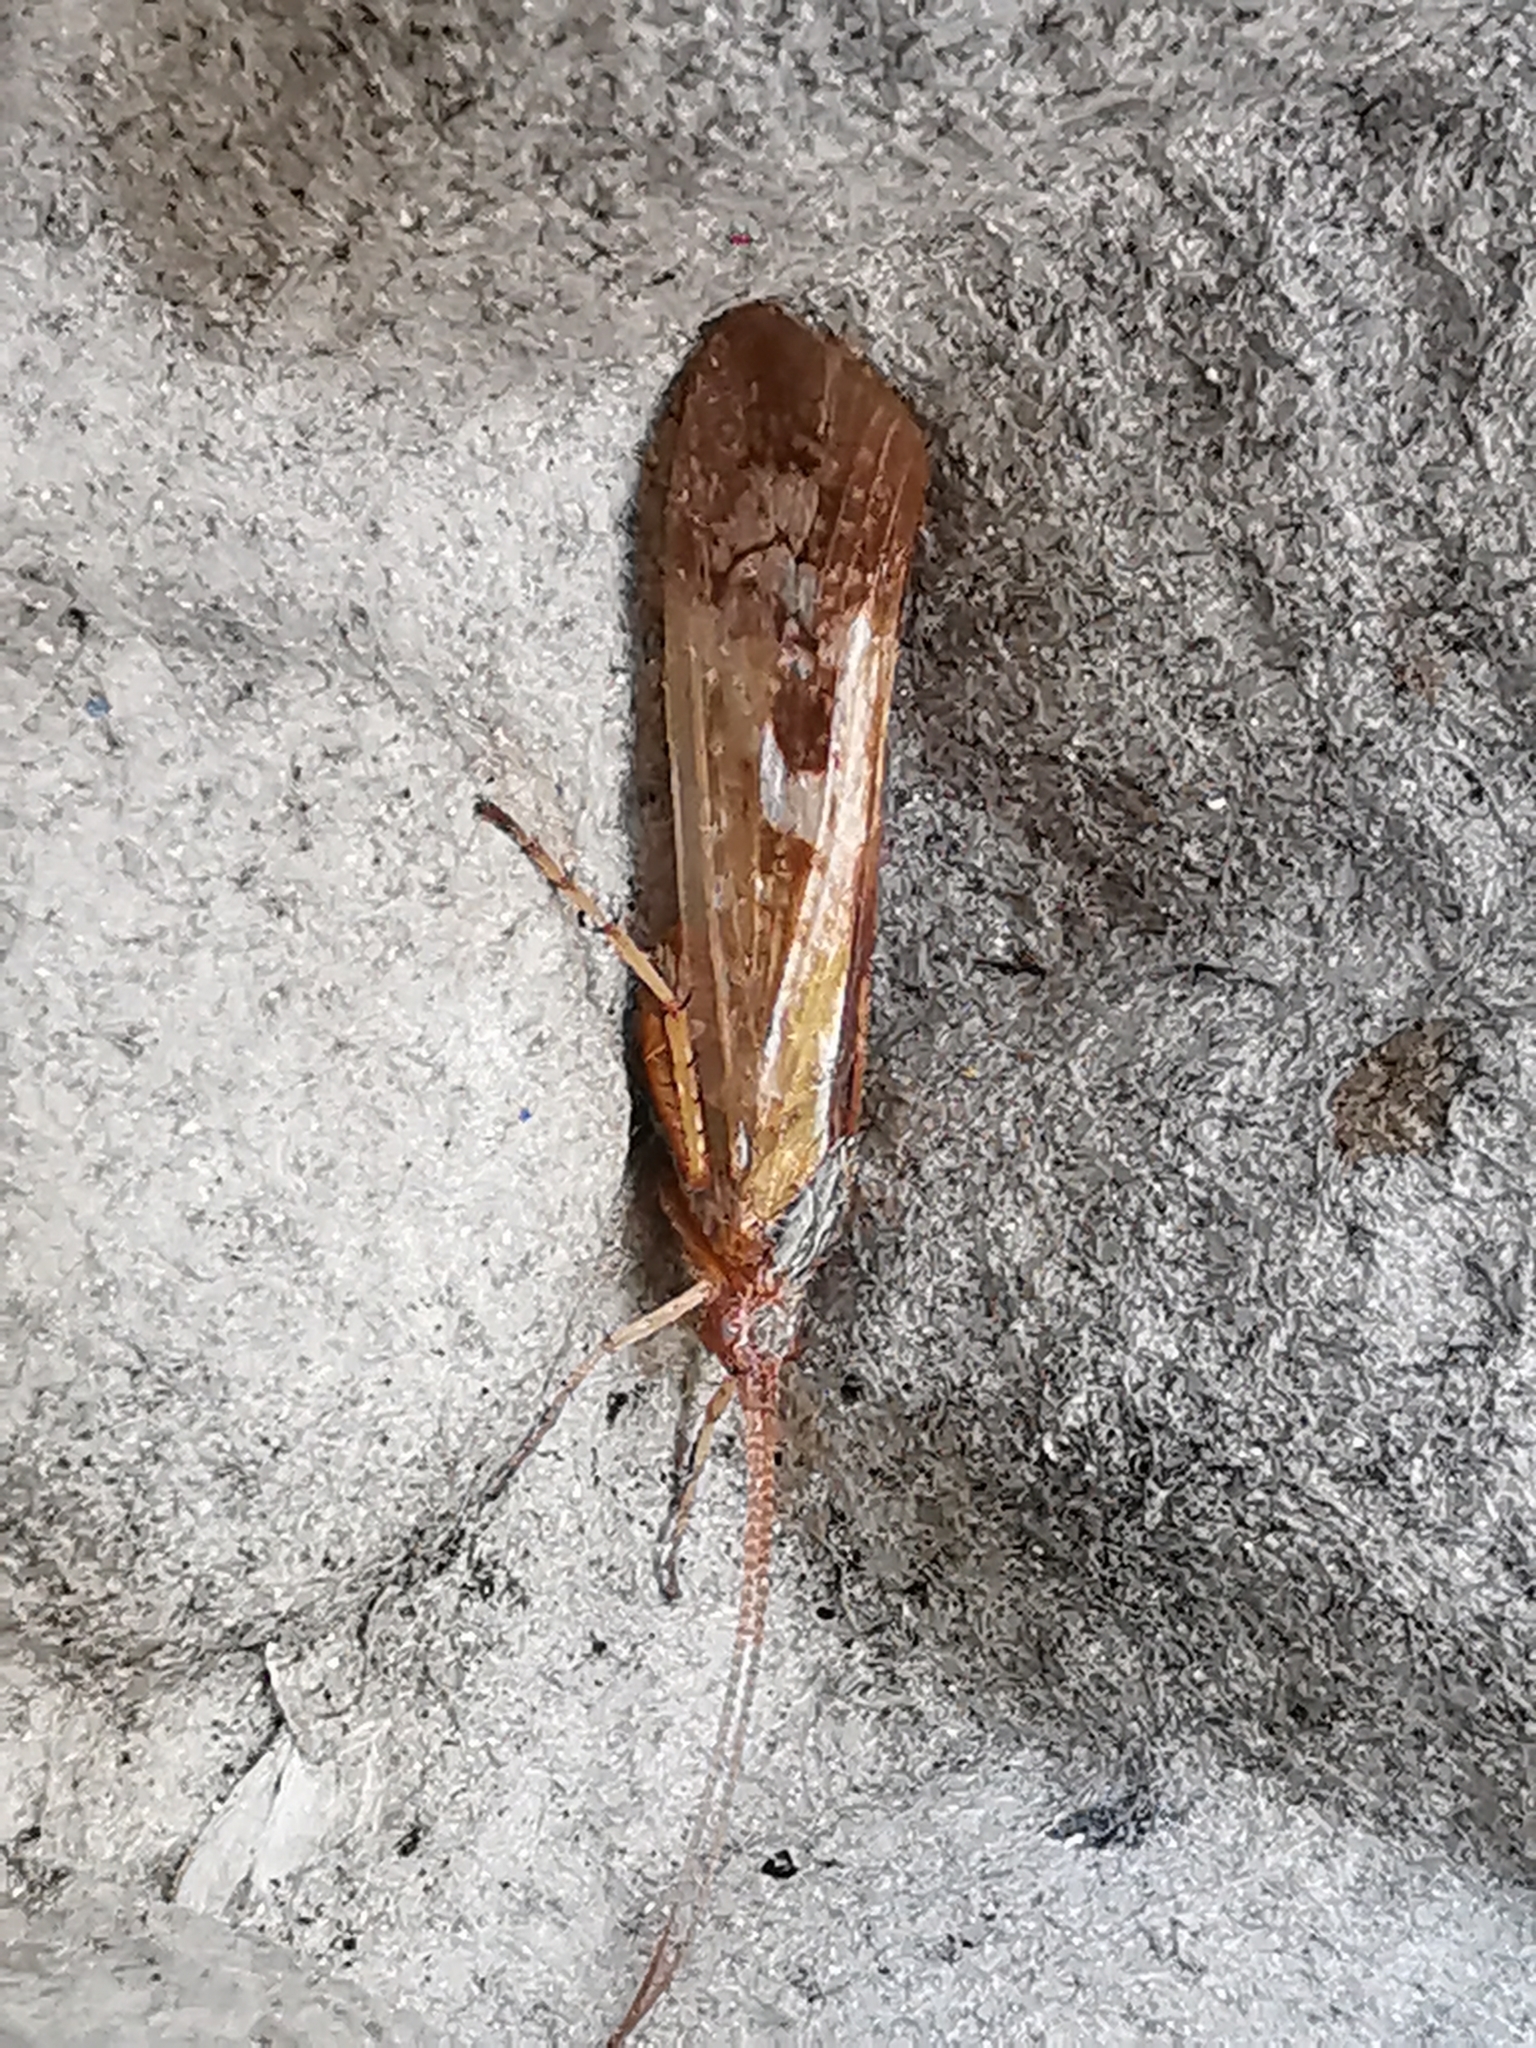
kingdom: Animalia
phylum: Arthropoda
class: Insecta
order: Trichoptera
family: Limnephilidae
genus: Limnephilus
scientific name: Limnephilus rhombicus
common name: Diamond northern caddisfly
